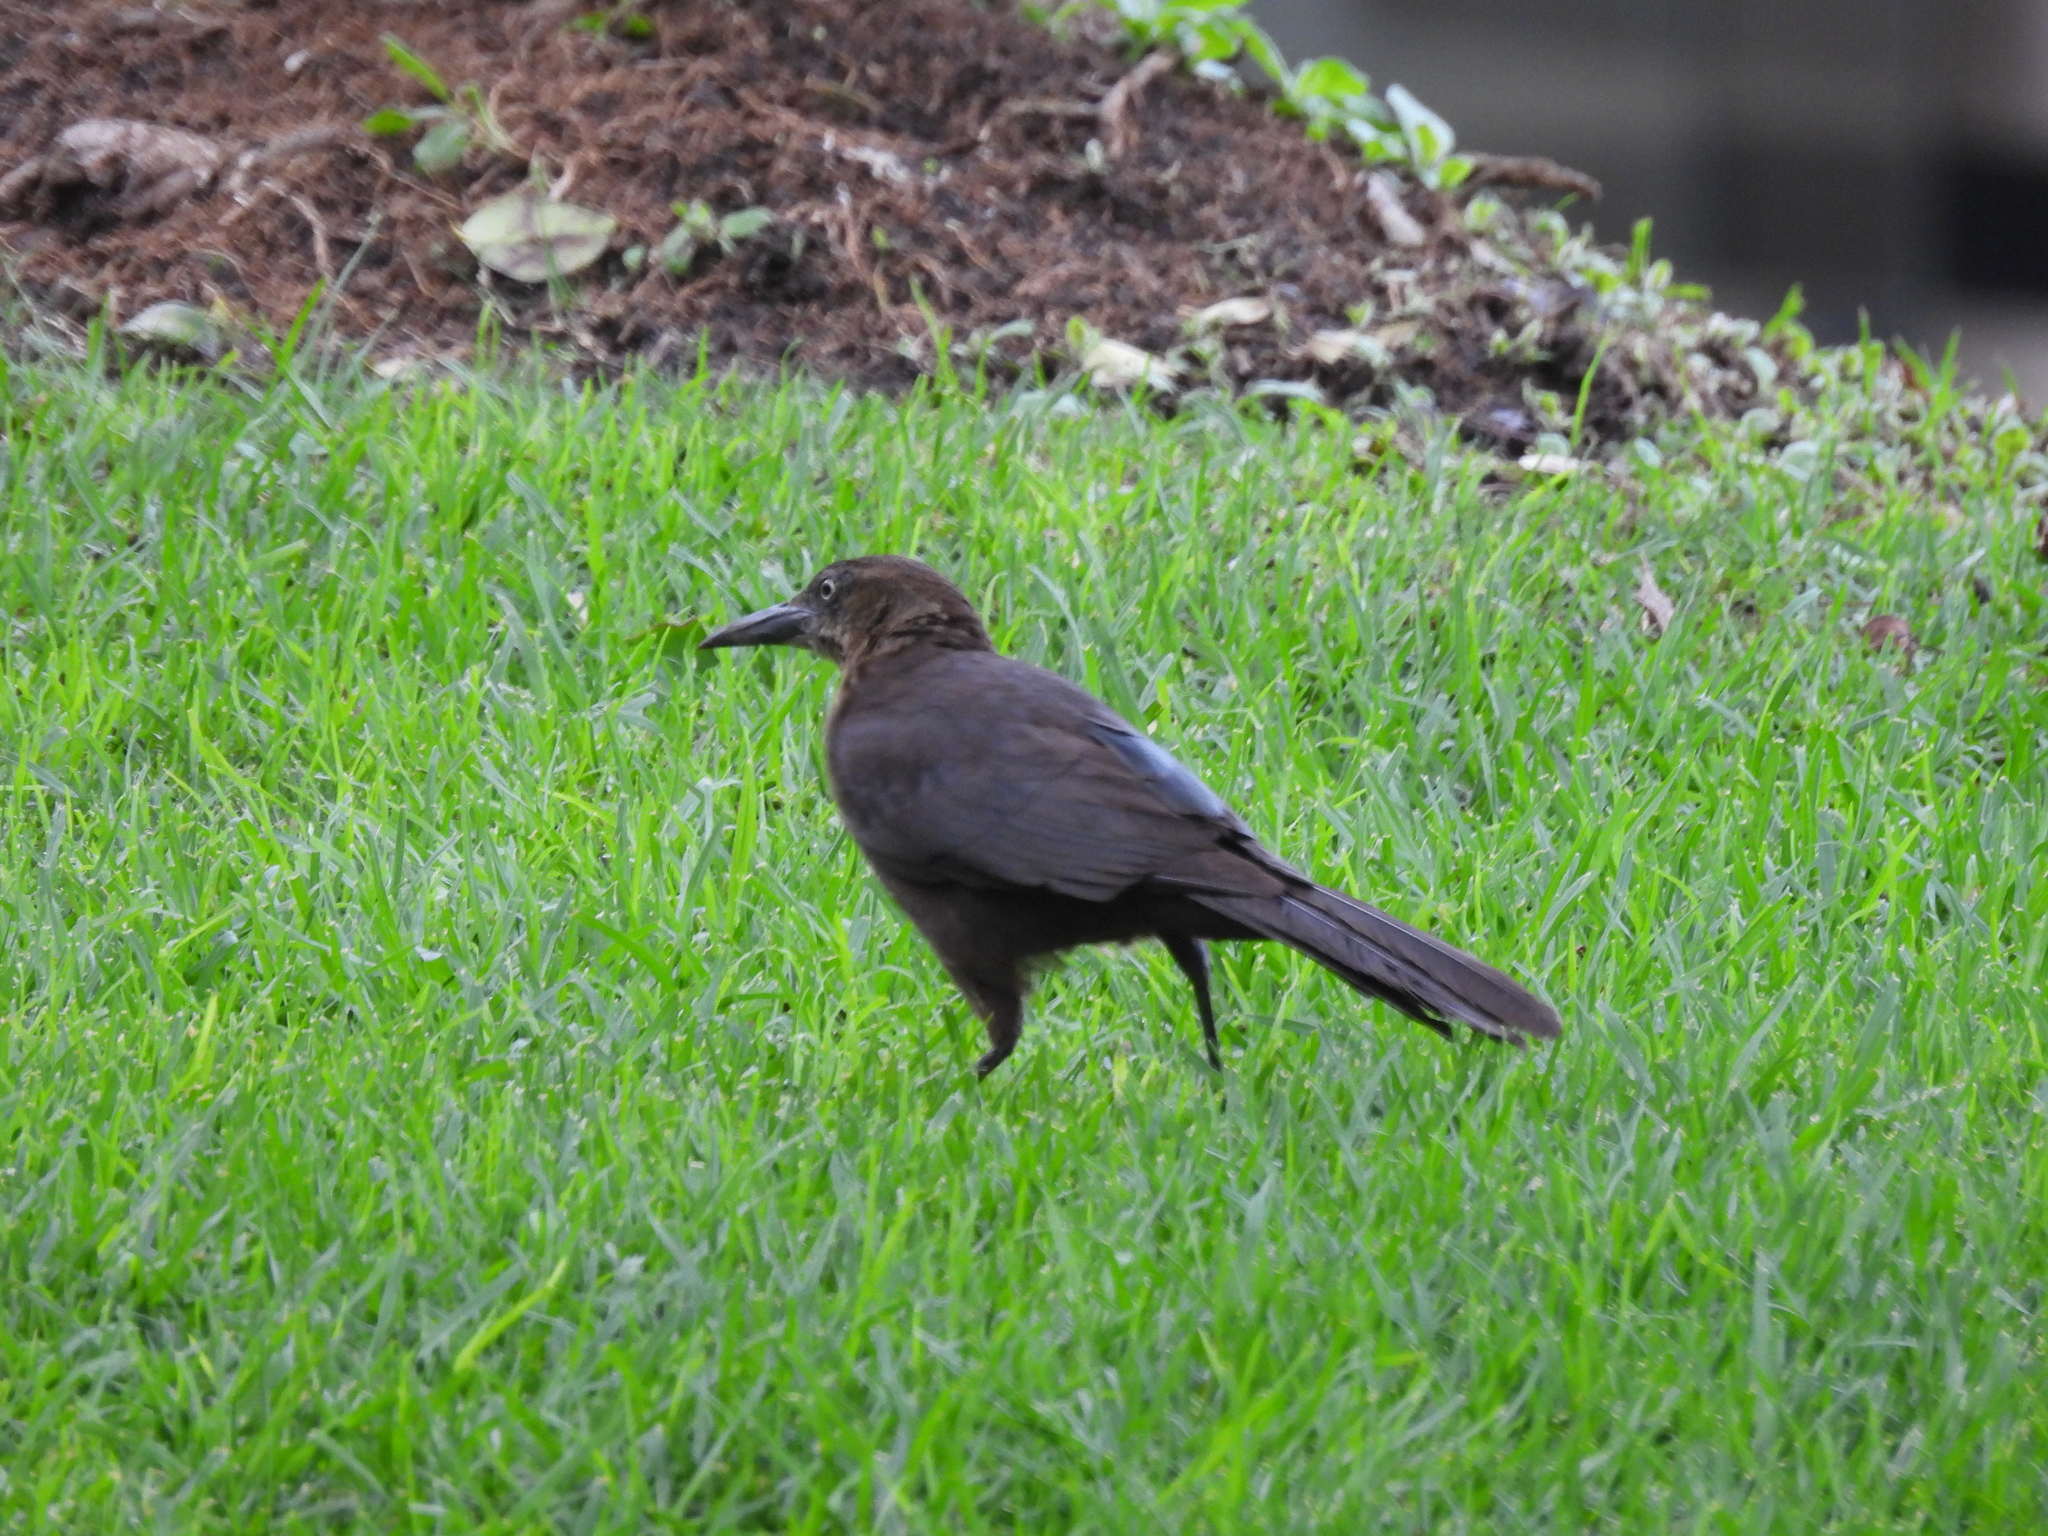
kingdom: Animalia
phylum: Chordata
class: Aves
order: Passeriformes
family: Icteridae
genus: Quiscalus
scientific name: Quiscalus mexicanus
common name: Great-tailed grackle
